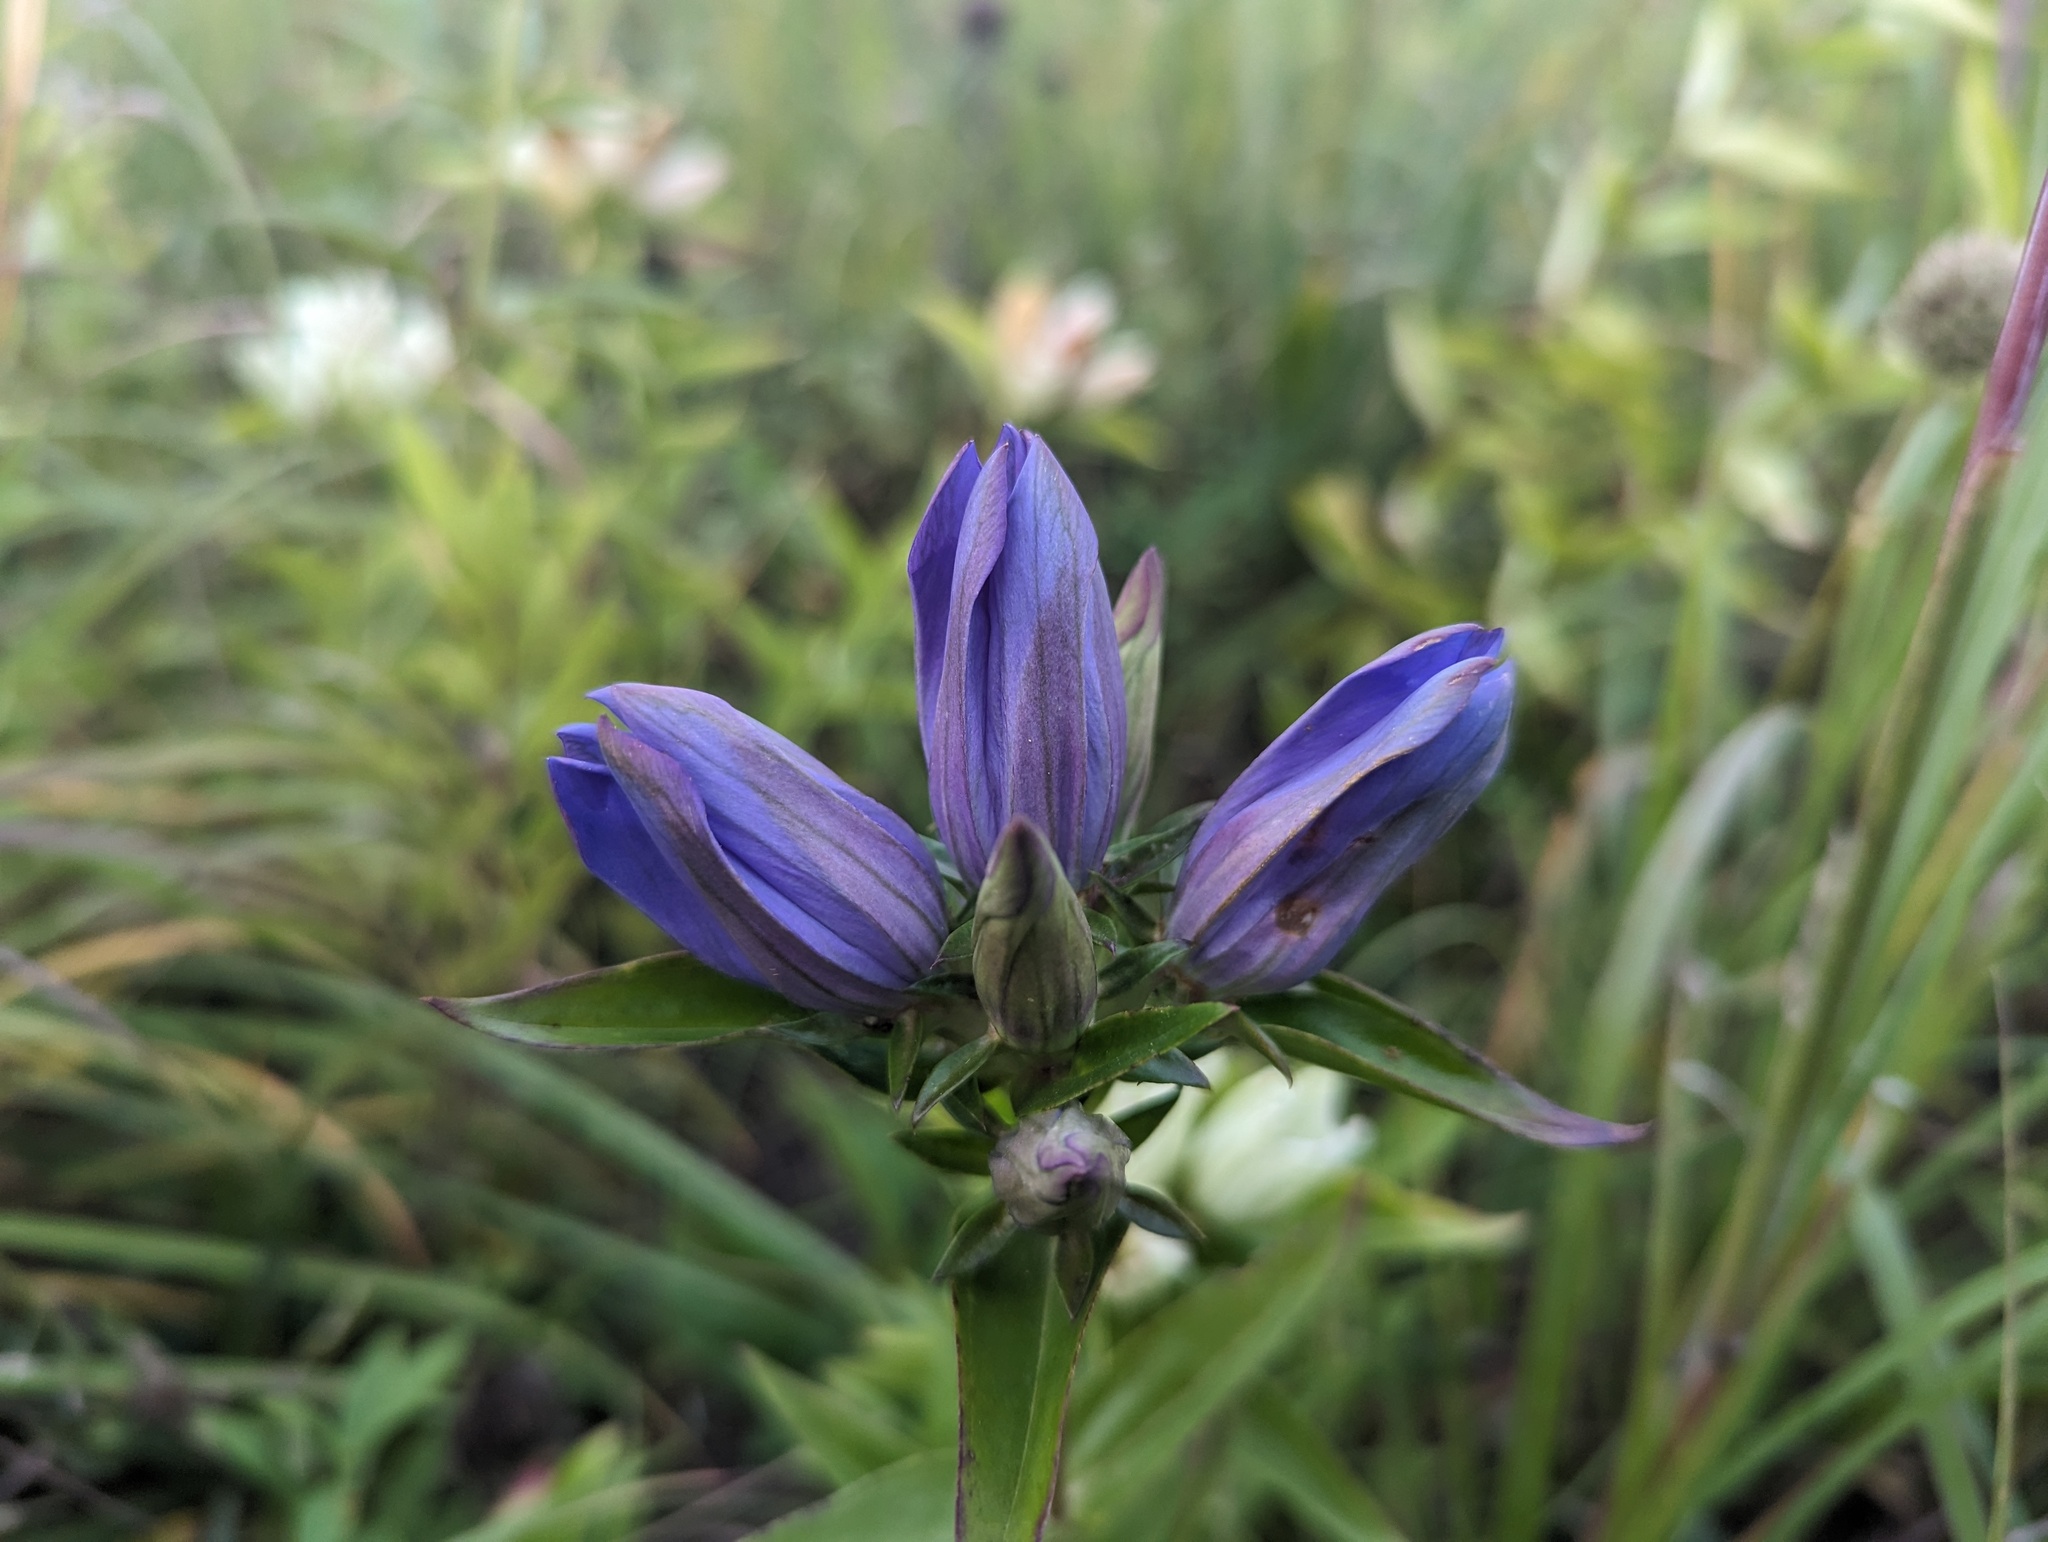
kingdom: Plantae
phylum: Tracheophyta
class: Magnoliopsida
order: Gentianales
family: Gentianaceae
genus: Gentiana
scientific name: Gentiana puberulenta
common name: Downy gentian
